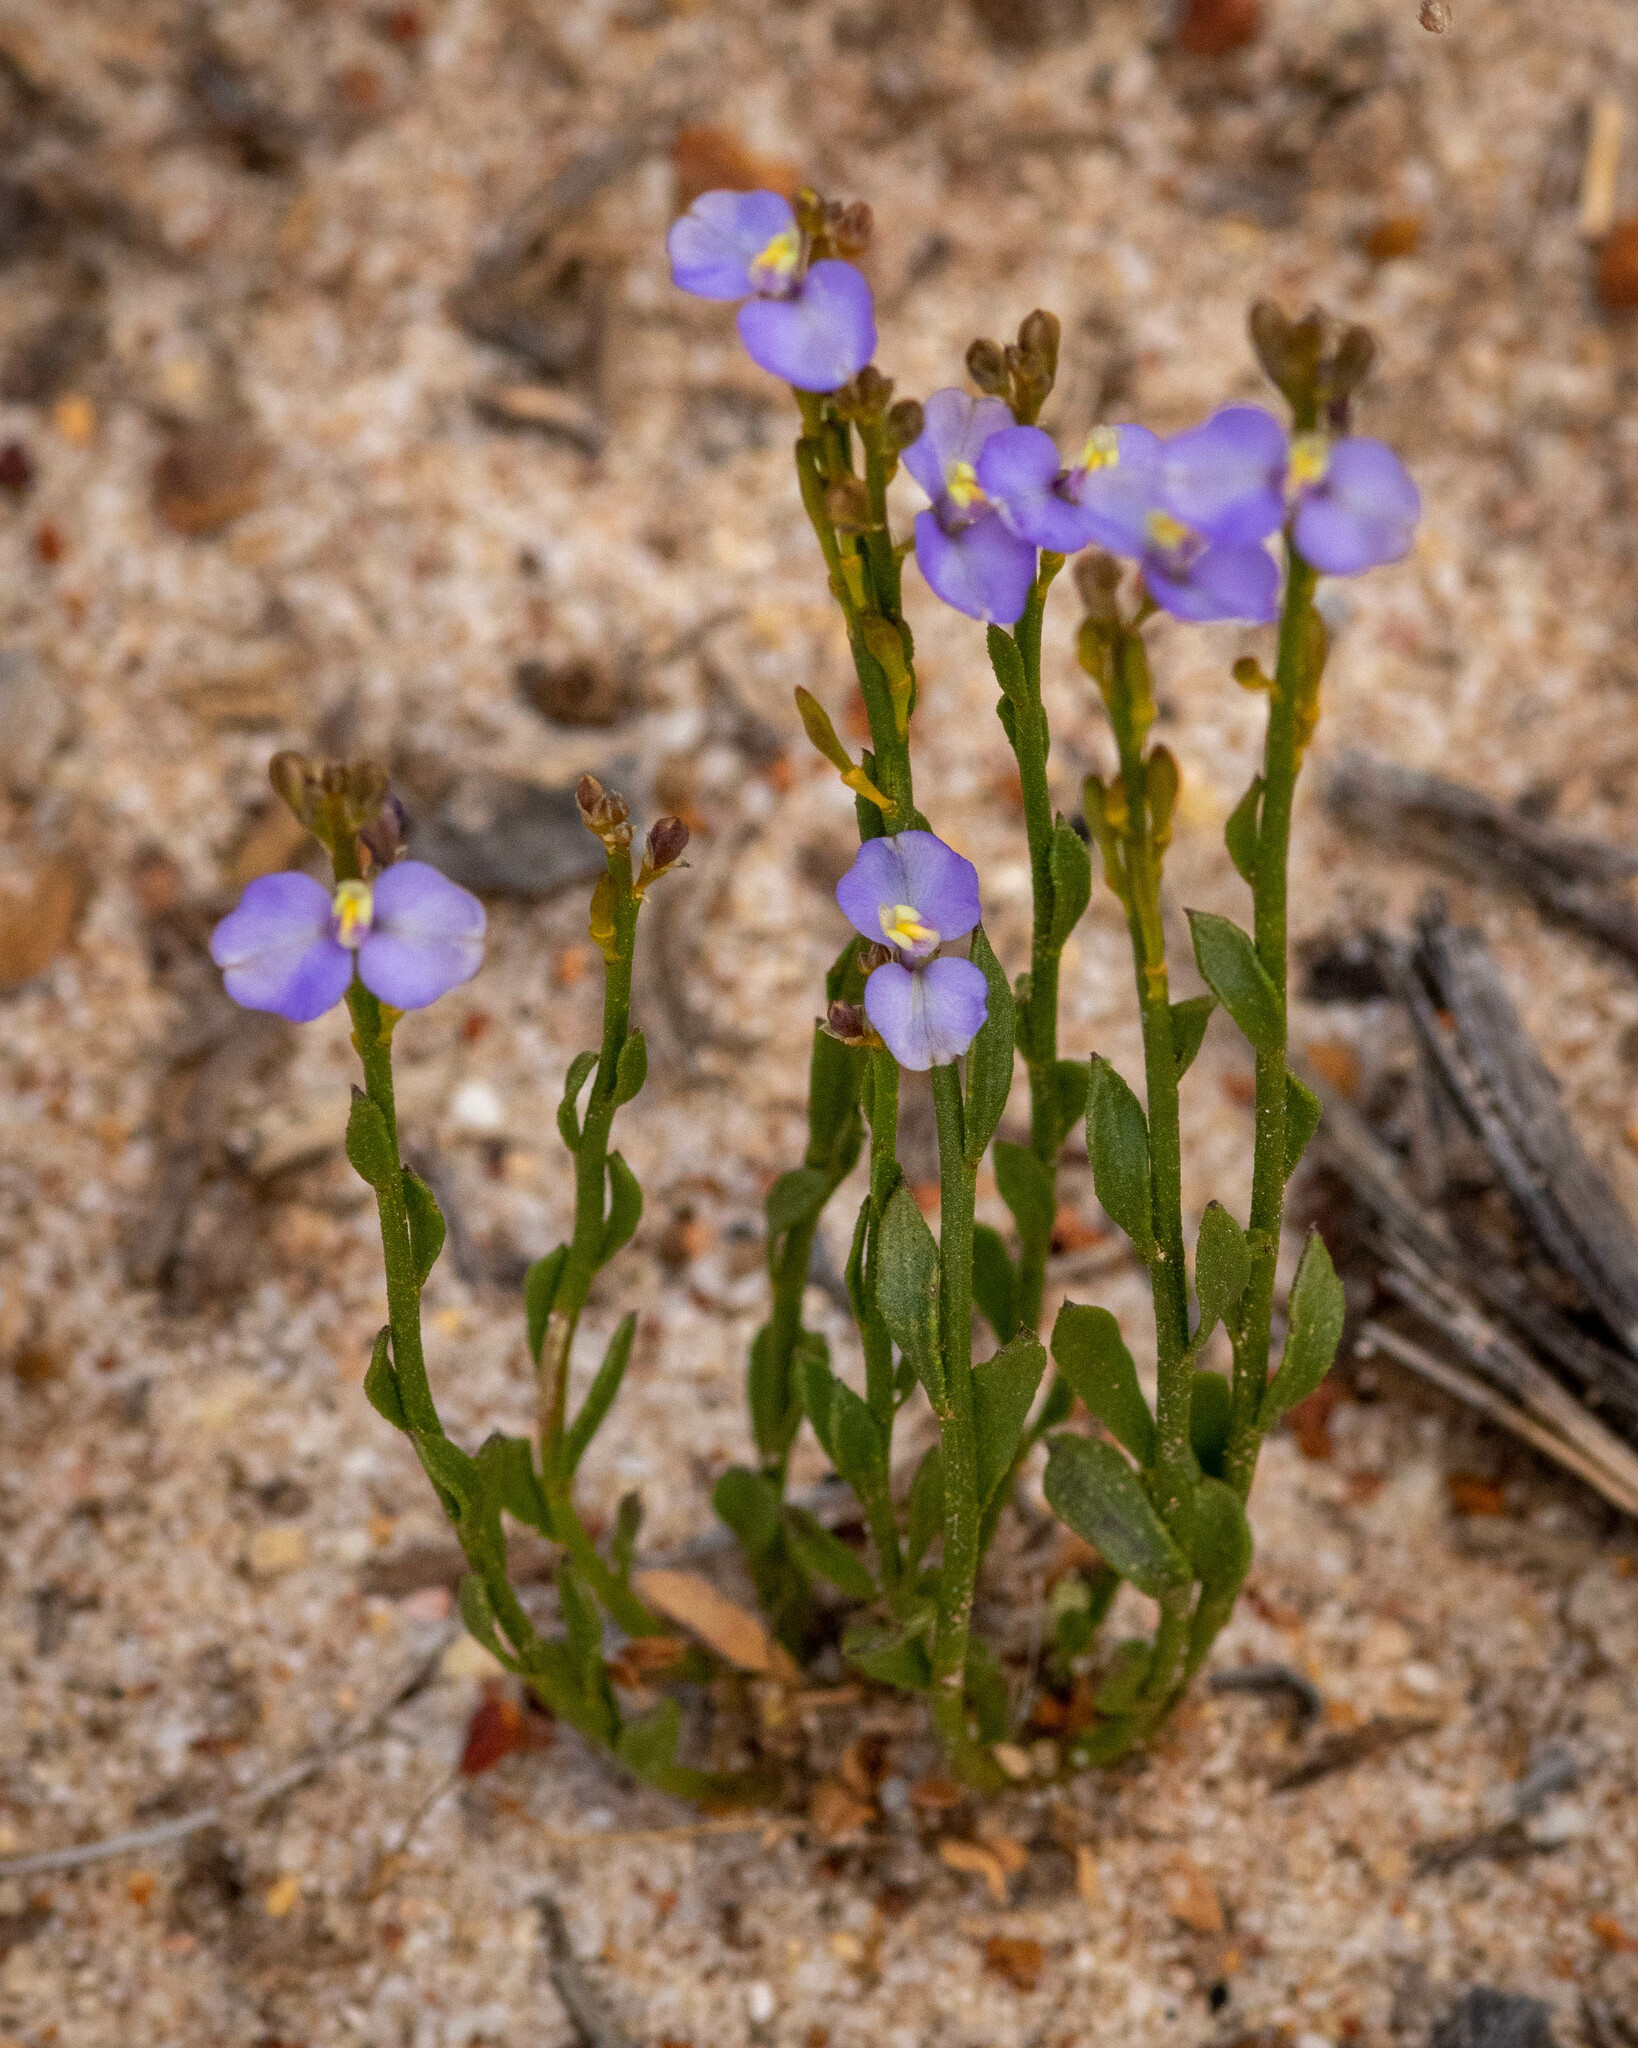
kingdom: Plantae
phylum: Tracheophyta
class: Magnoliopsida
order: Fabales
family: Polygalaceae
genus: Comesperma
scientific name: Comesperma calymega
